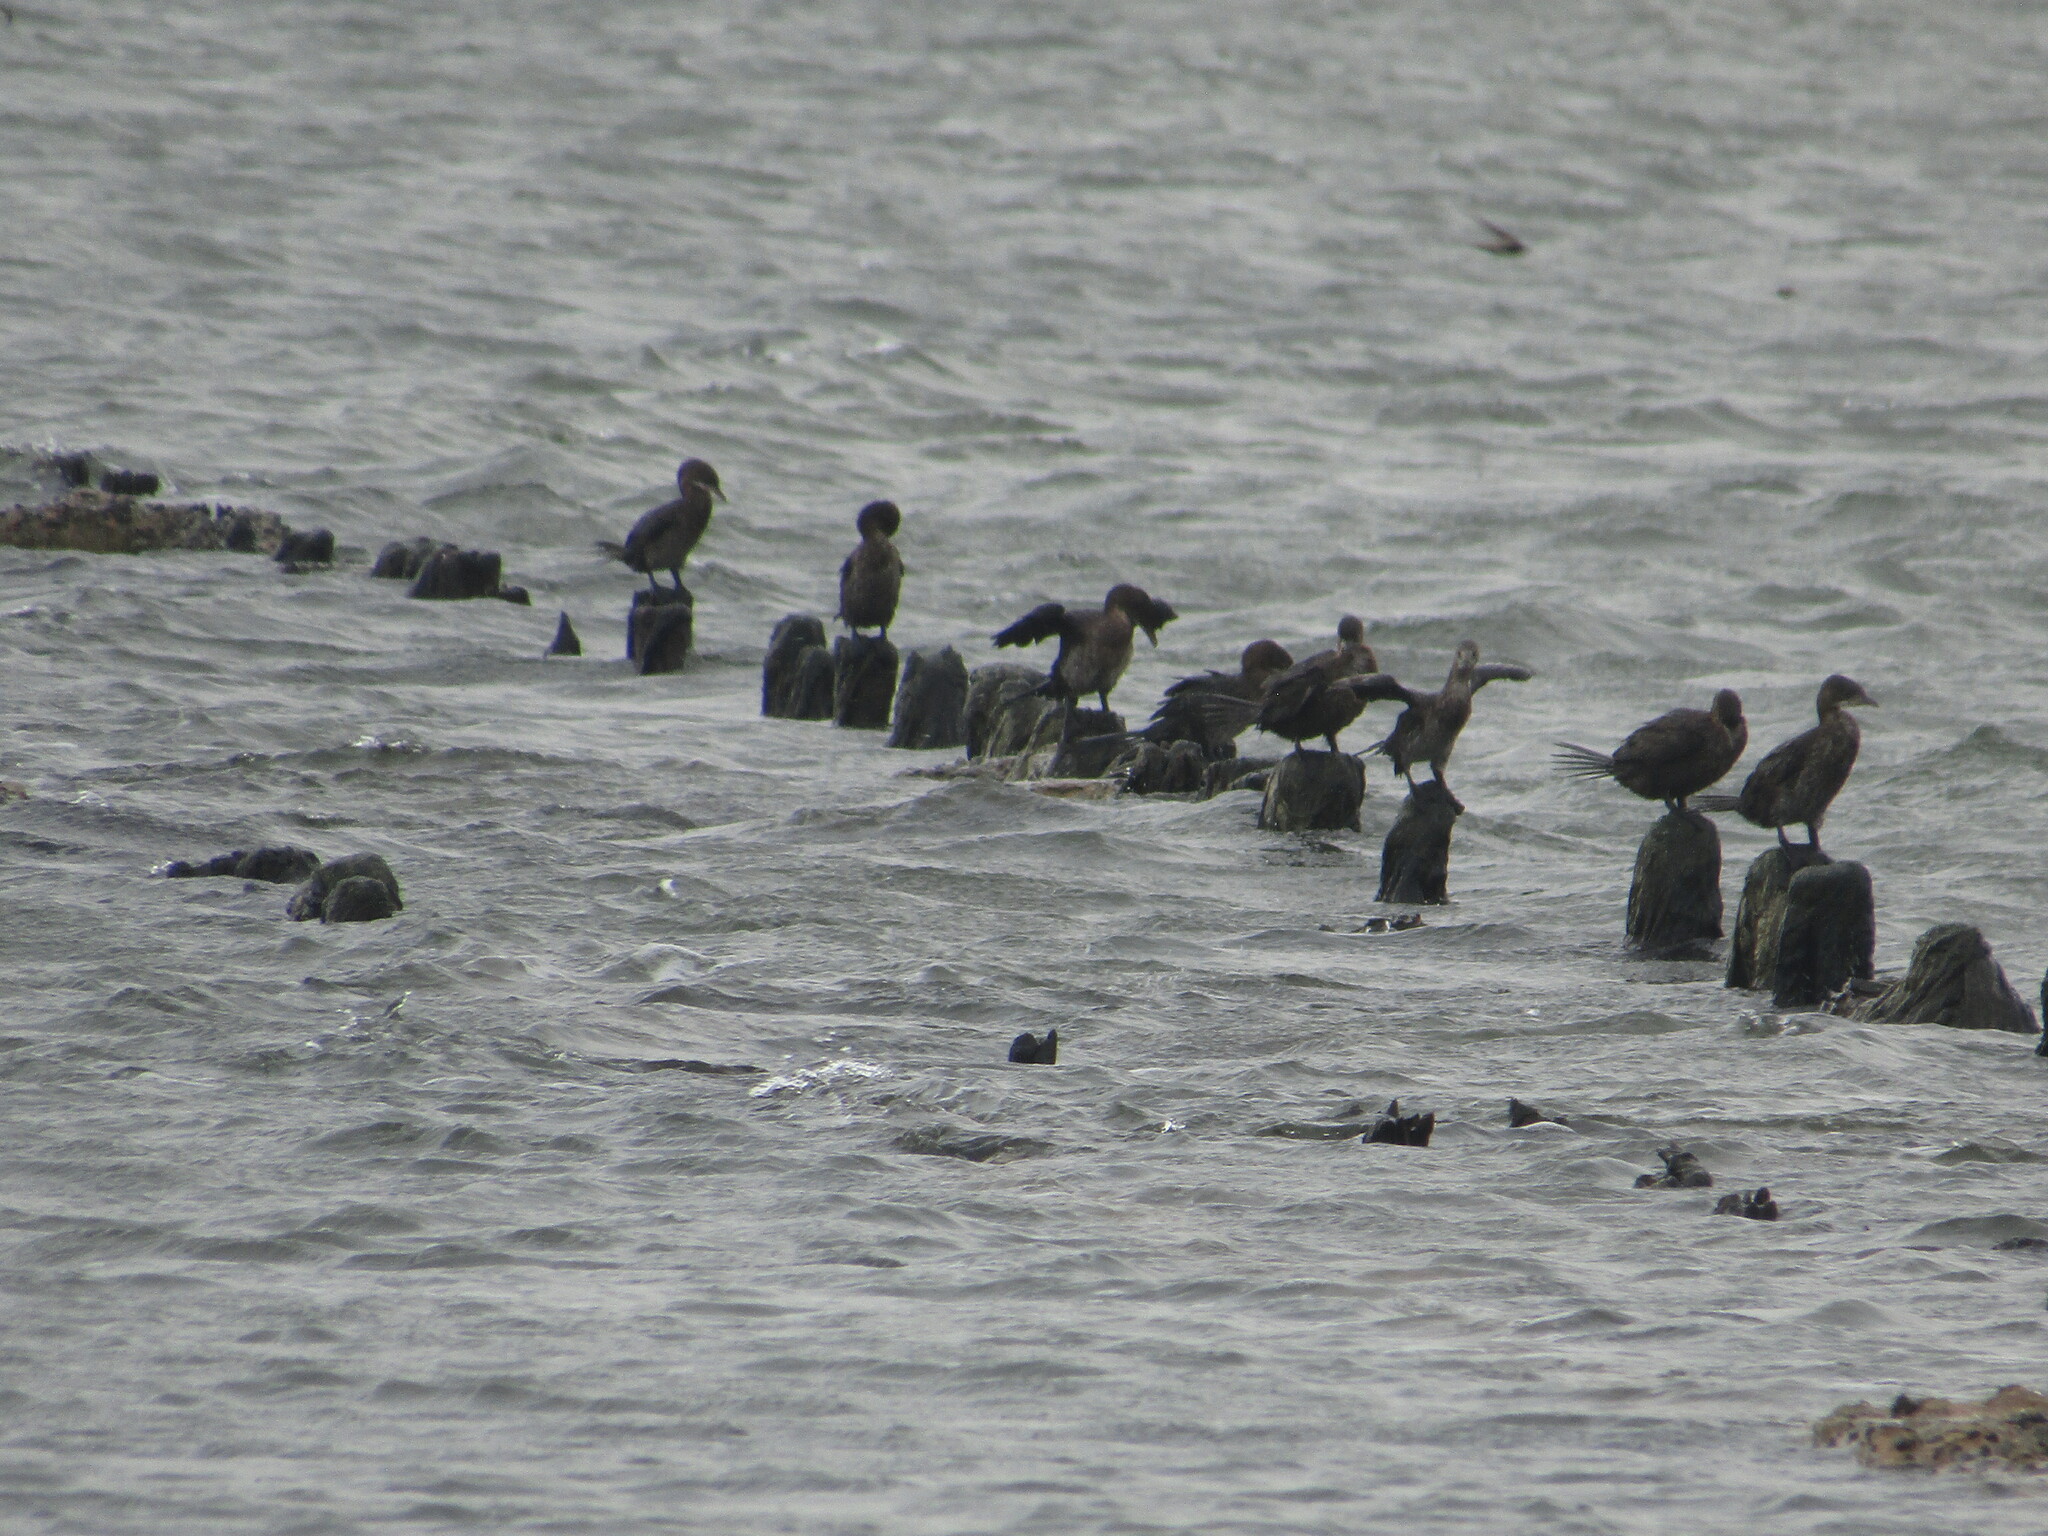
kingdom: Animalia
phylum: Chordata
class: Aves
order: Suliformes
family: Phalacrocoracidae
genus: Microcarbo
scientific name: Microcarbo pygmaeus
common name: Pygmy cormorant
